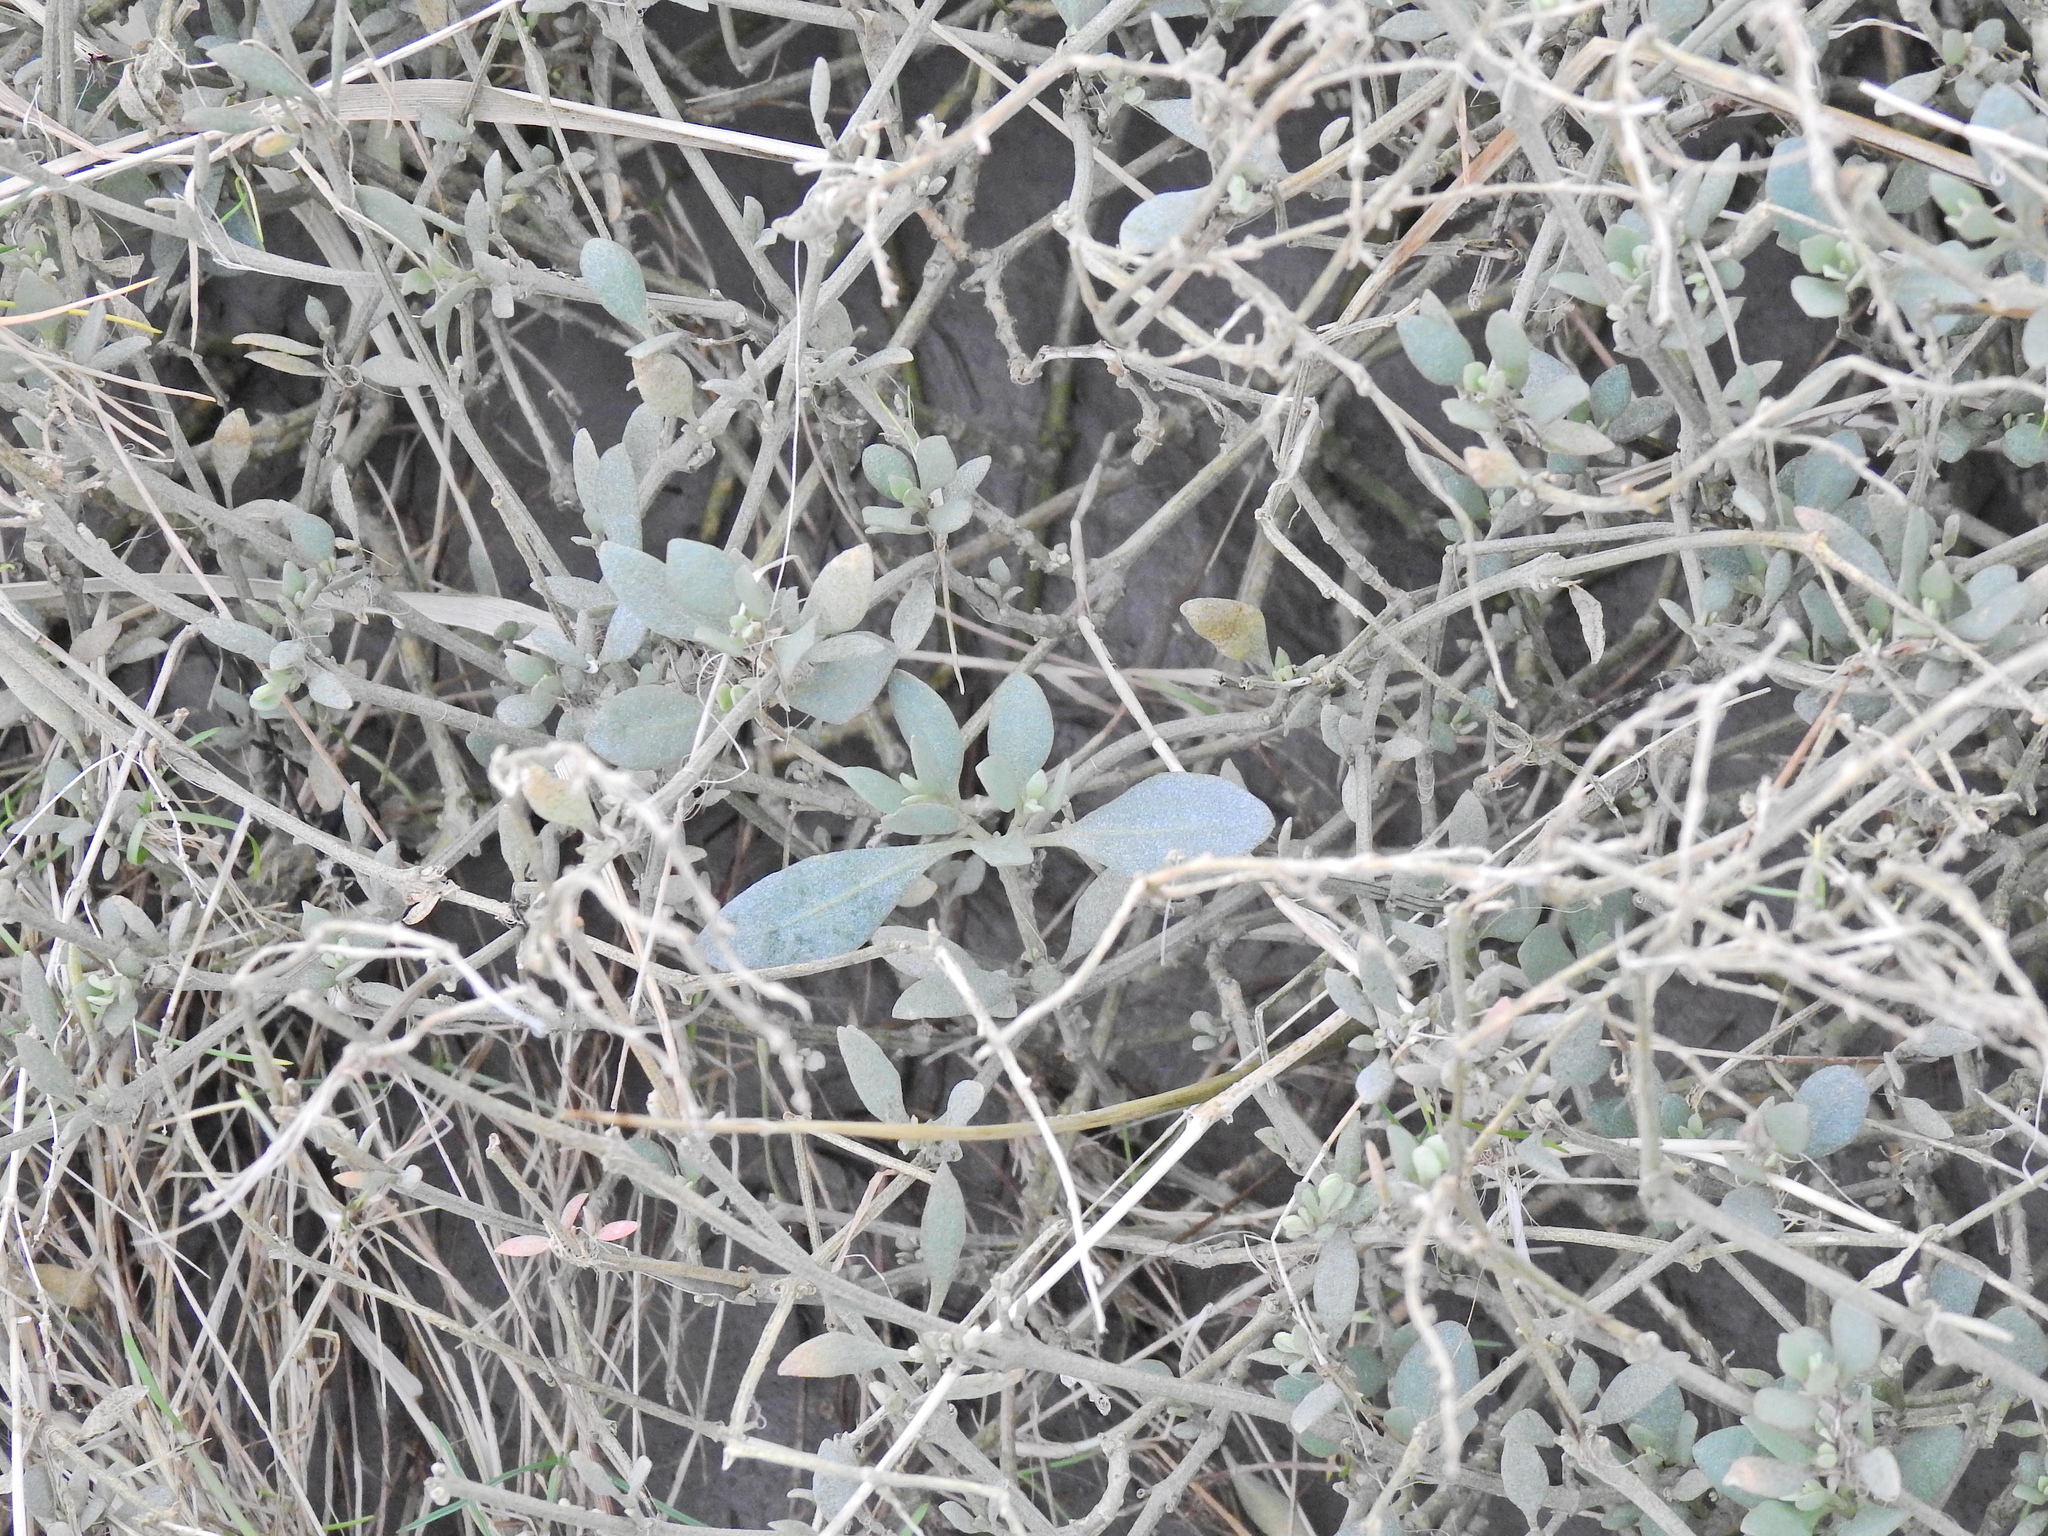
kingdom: Plantae
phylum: Tracheophyta
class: Magnoliopsida
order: Caryophyllales
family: Amaranthaceae
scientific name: Amaranthaceae
